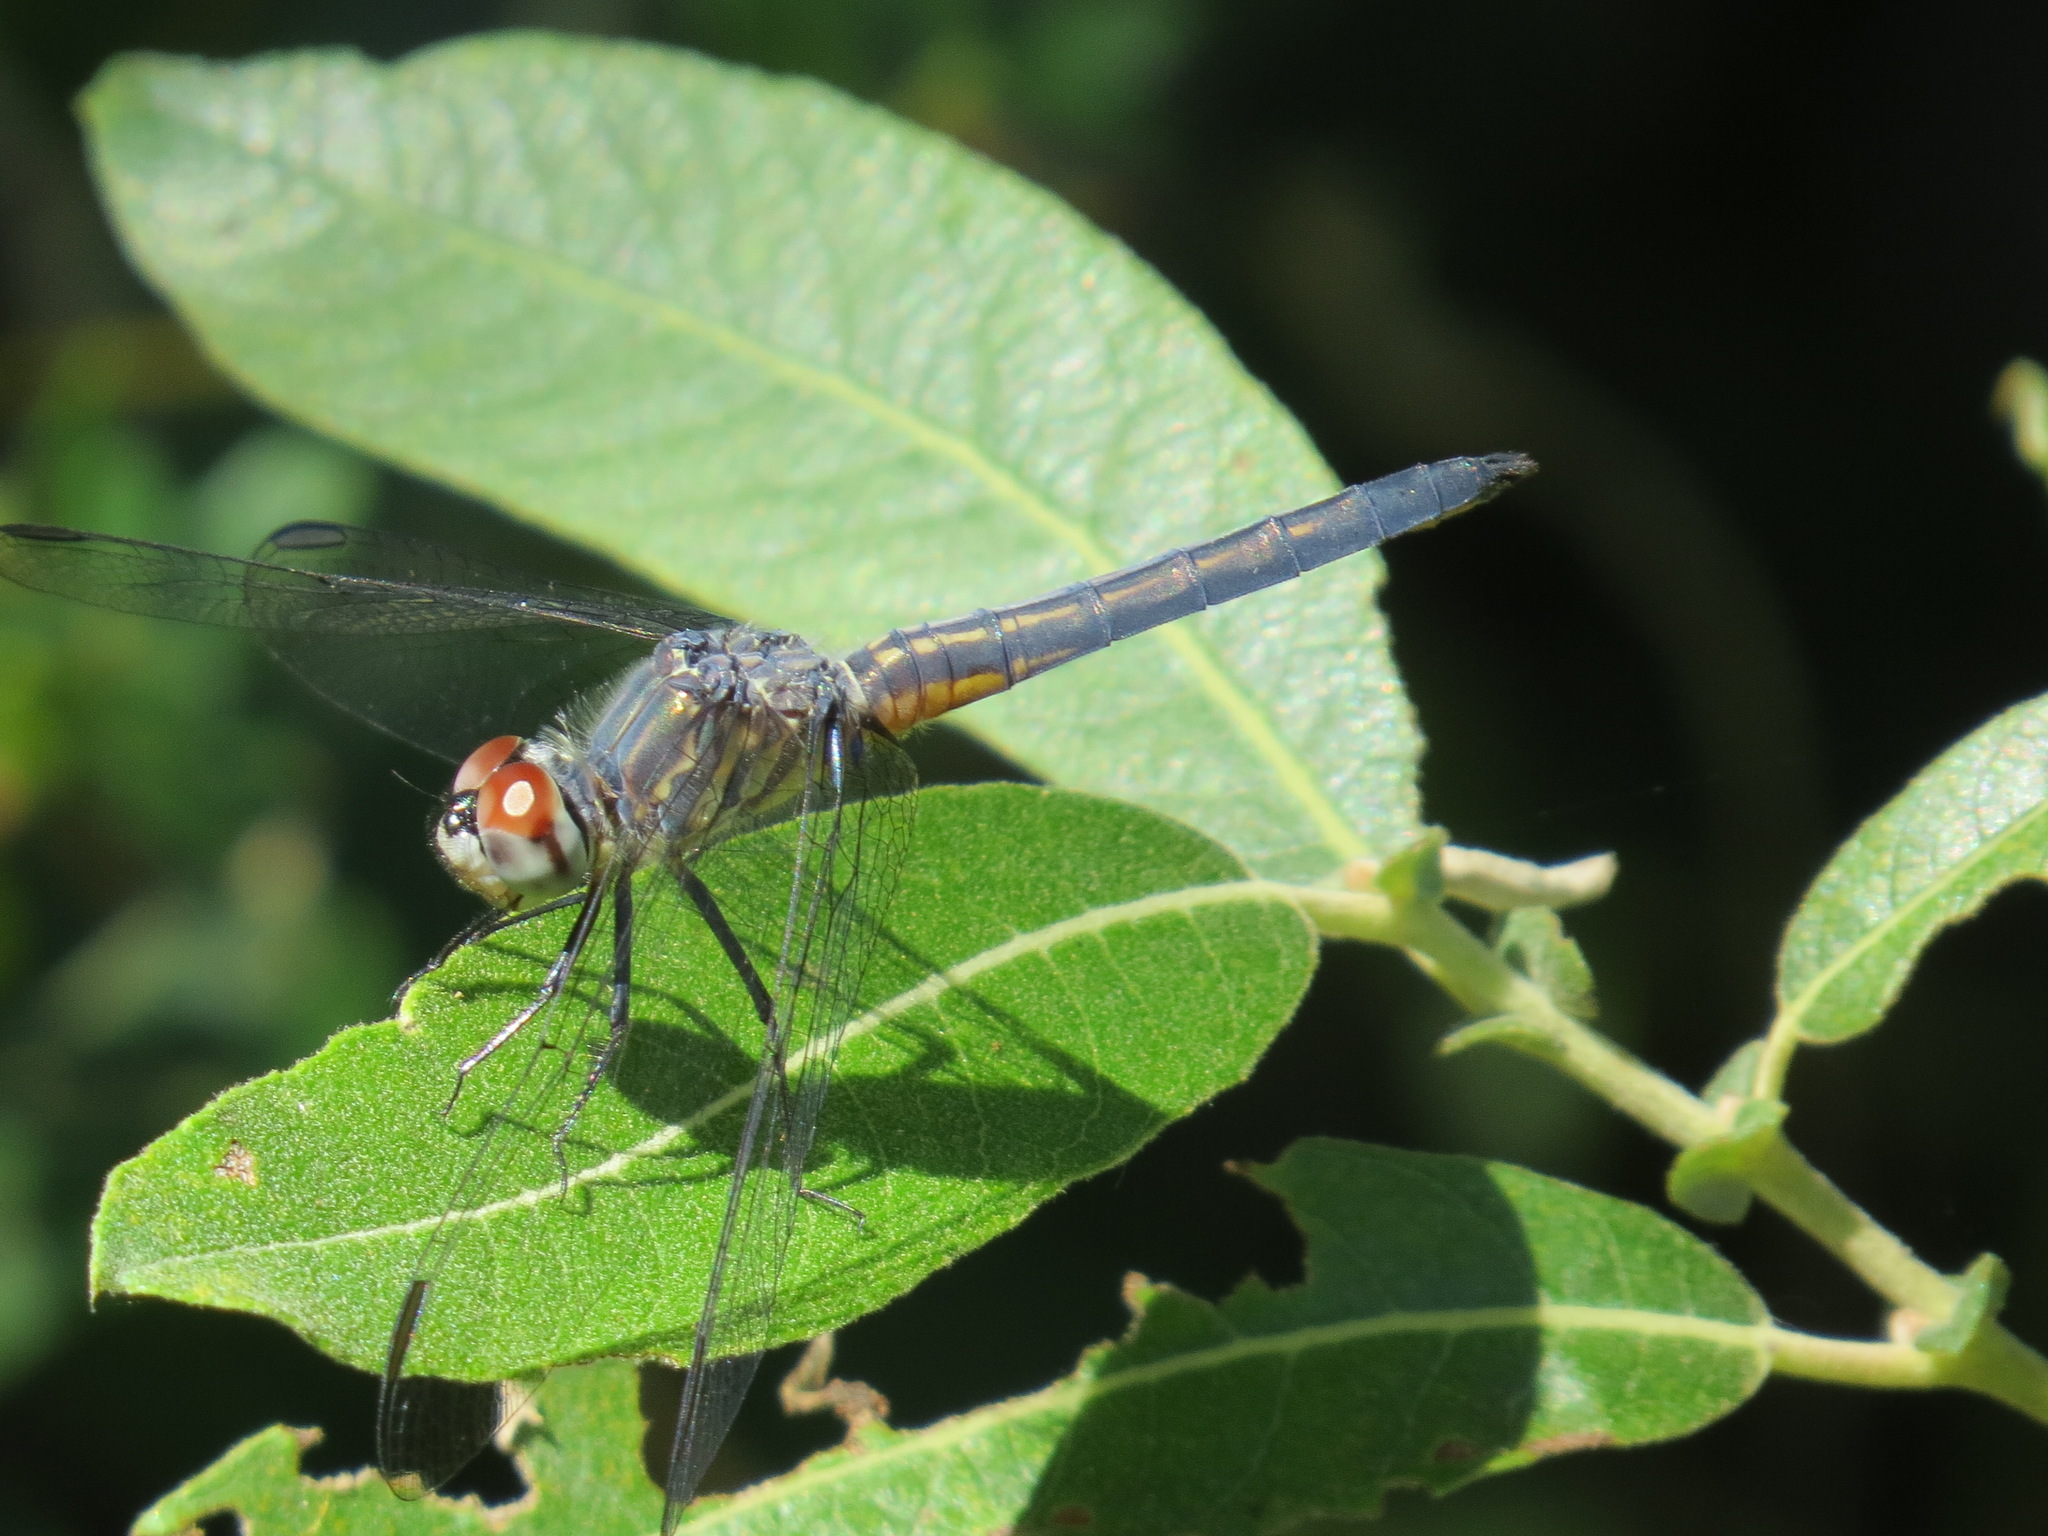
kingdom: Animalia
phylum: Arthropoda
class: Insecta
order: Odonata
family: Libellulidae
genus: Pachydiplax
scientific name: Pachydiplax longipennis
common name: Blue dasher
